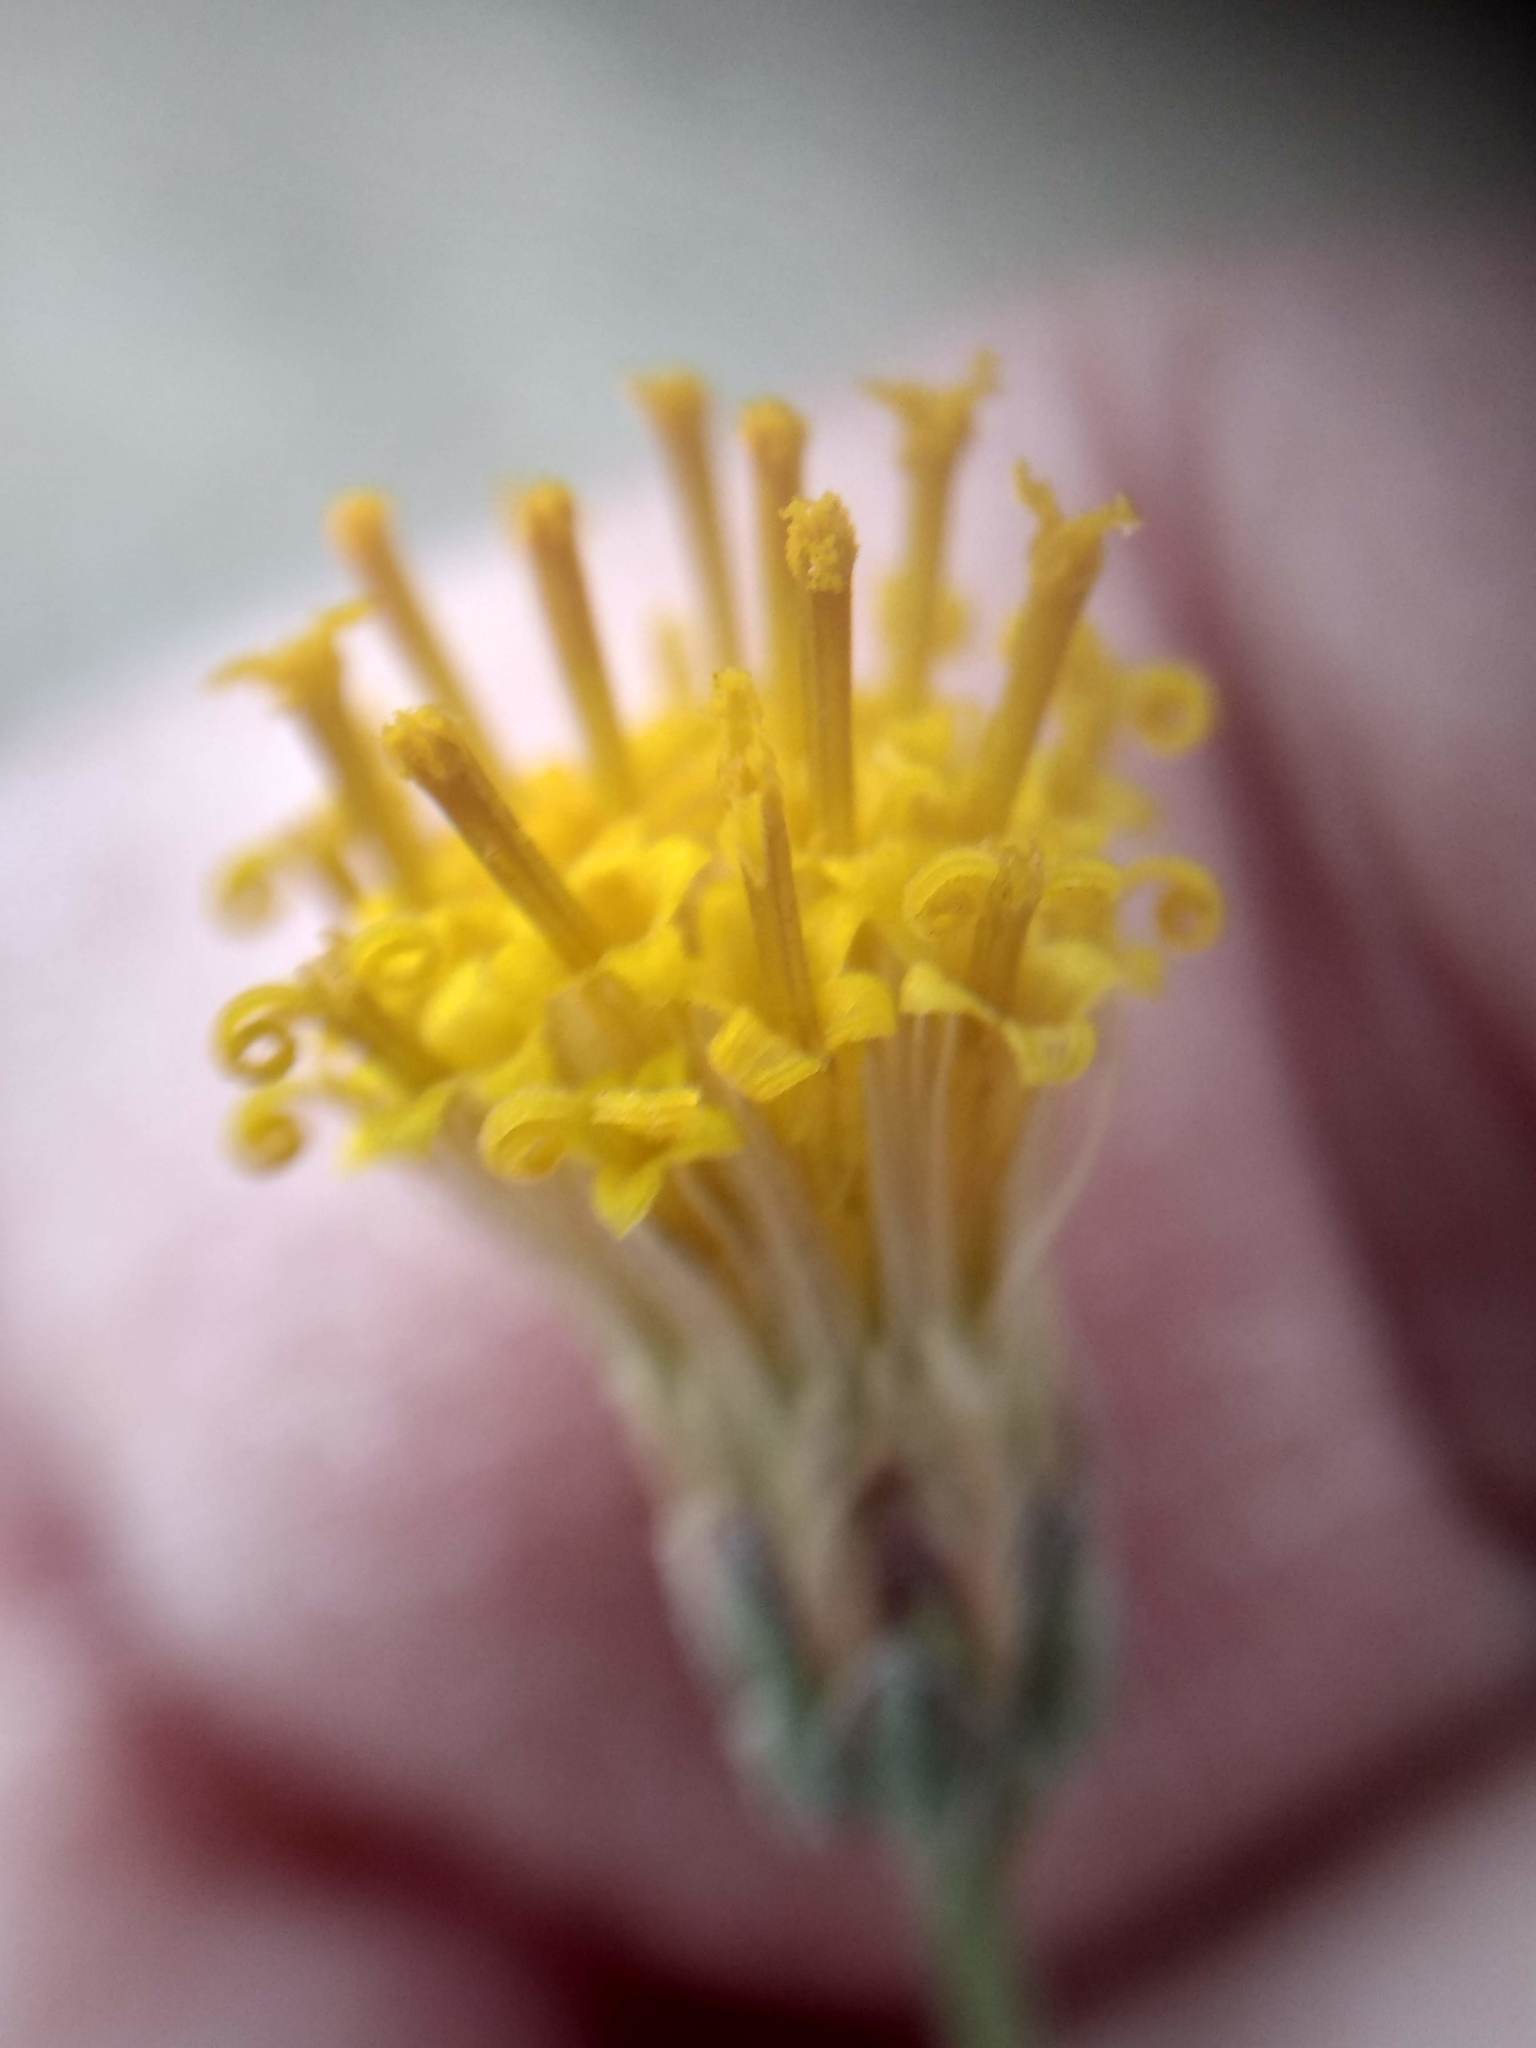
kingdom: Plantae
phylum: Tracheophyta
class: Magnoliopsida
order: Asterales
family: Asteraceae
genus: Bebbia
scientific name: Bebbia juncea
